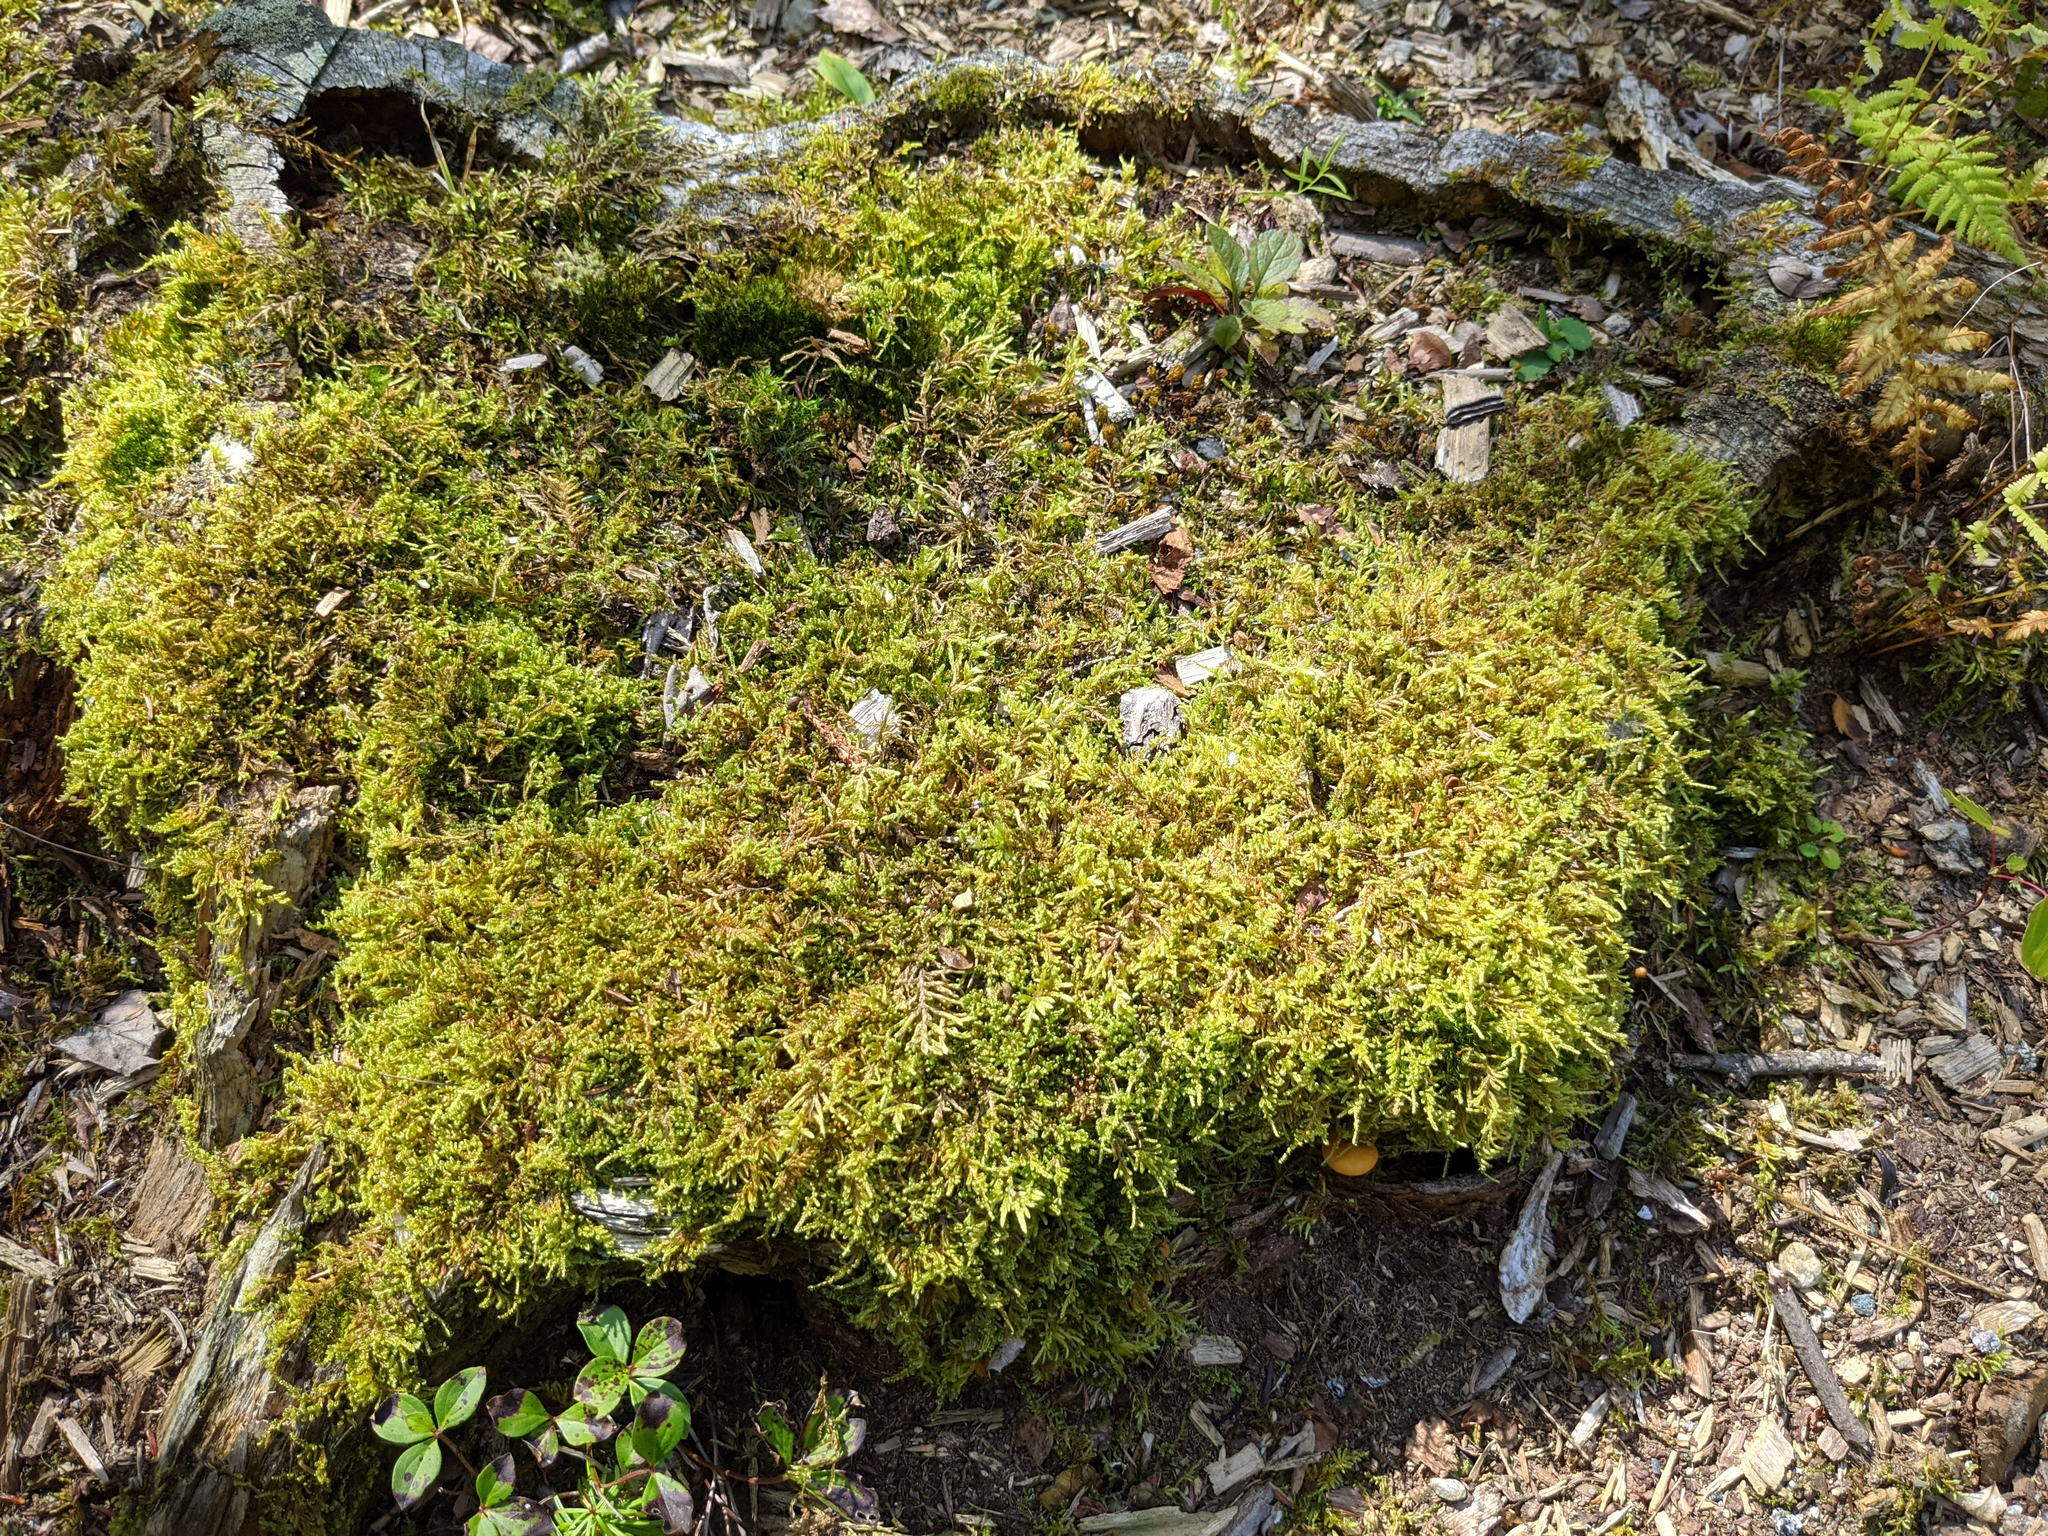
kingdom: Plantae
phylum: Bryophyta
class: Bryopsida
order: Hypnales
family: Callicladiaceae
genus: Callicladium
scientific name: Callicladium imponens
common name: Brocade moss
